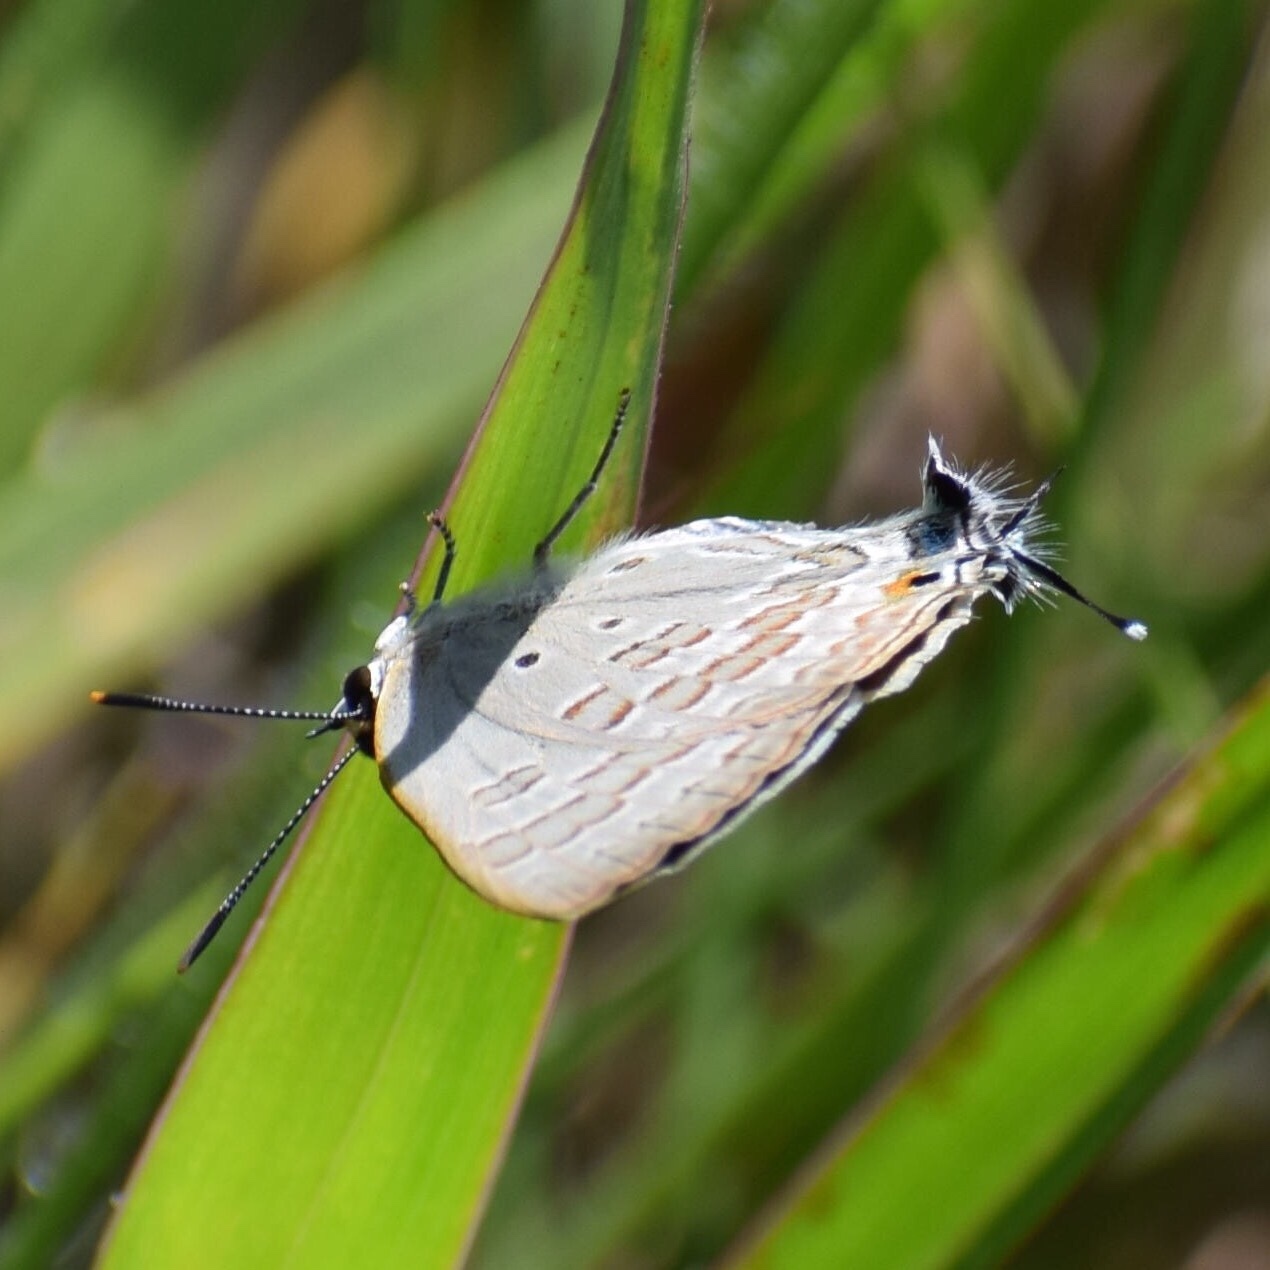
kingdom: Animalia
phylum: Arthropoda
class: Insecta
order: Lepidoptera
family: Lycaenidae
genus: Deudorix
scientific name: Deudorix antalus
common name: Brown playboy
